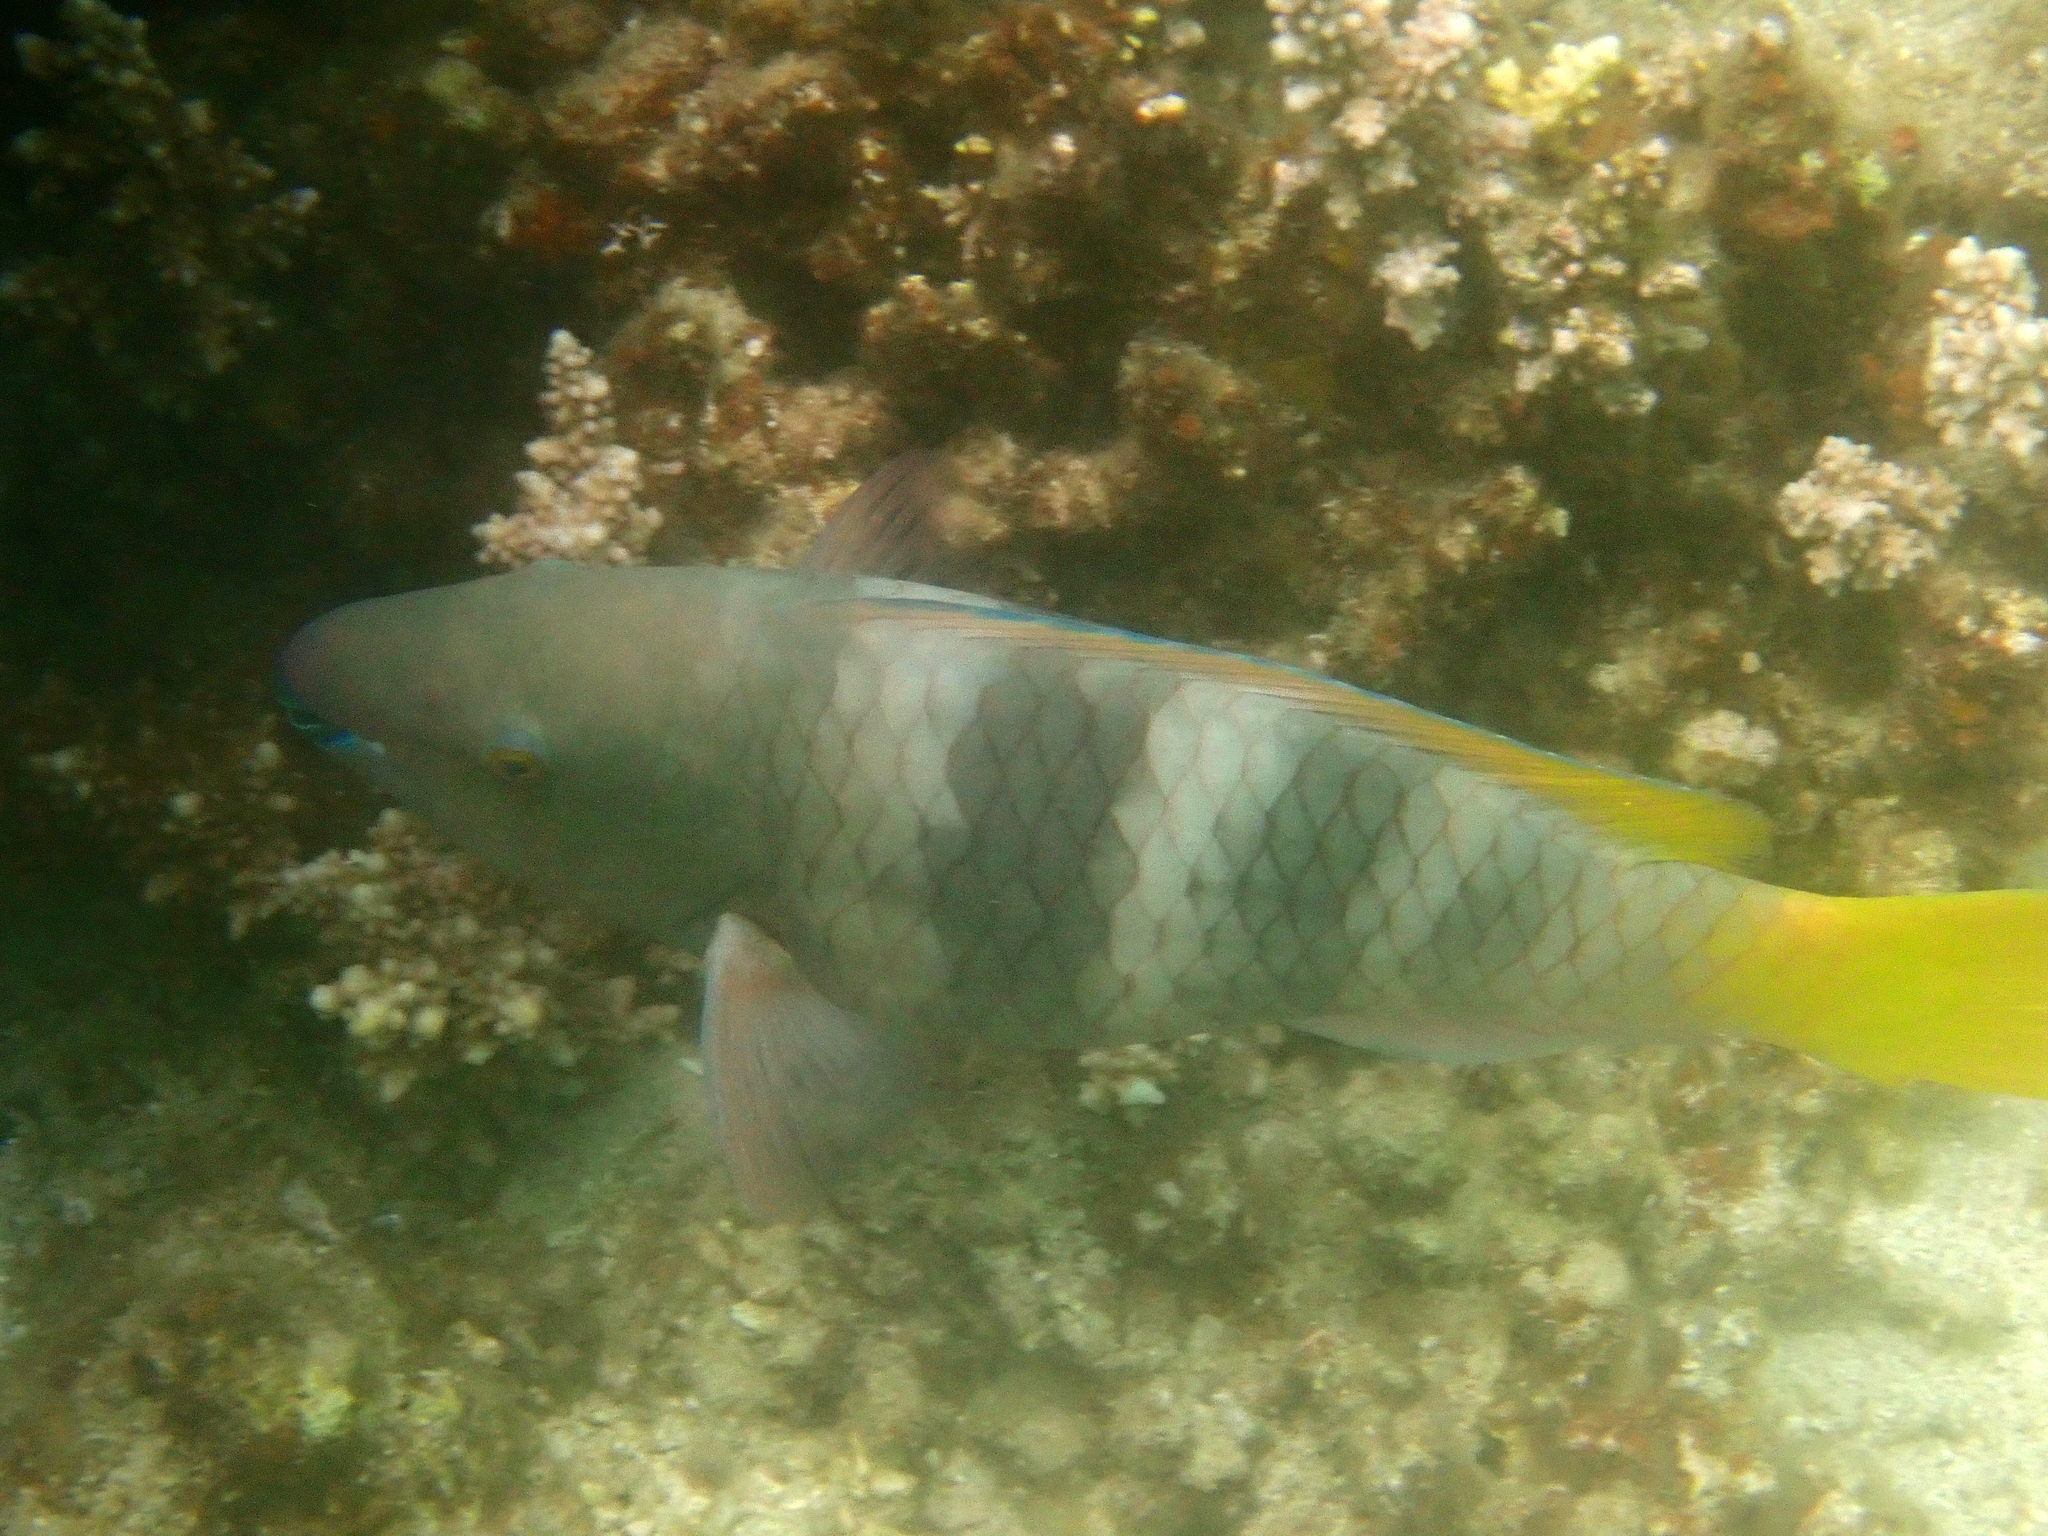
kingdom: Animalia
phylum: Chordata
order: Perciformes
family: Scaridae
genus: Scarus
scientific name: Scarus ferrugineus
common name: Rusty parrotfish
